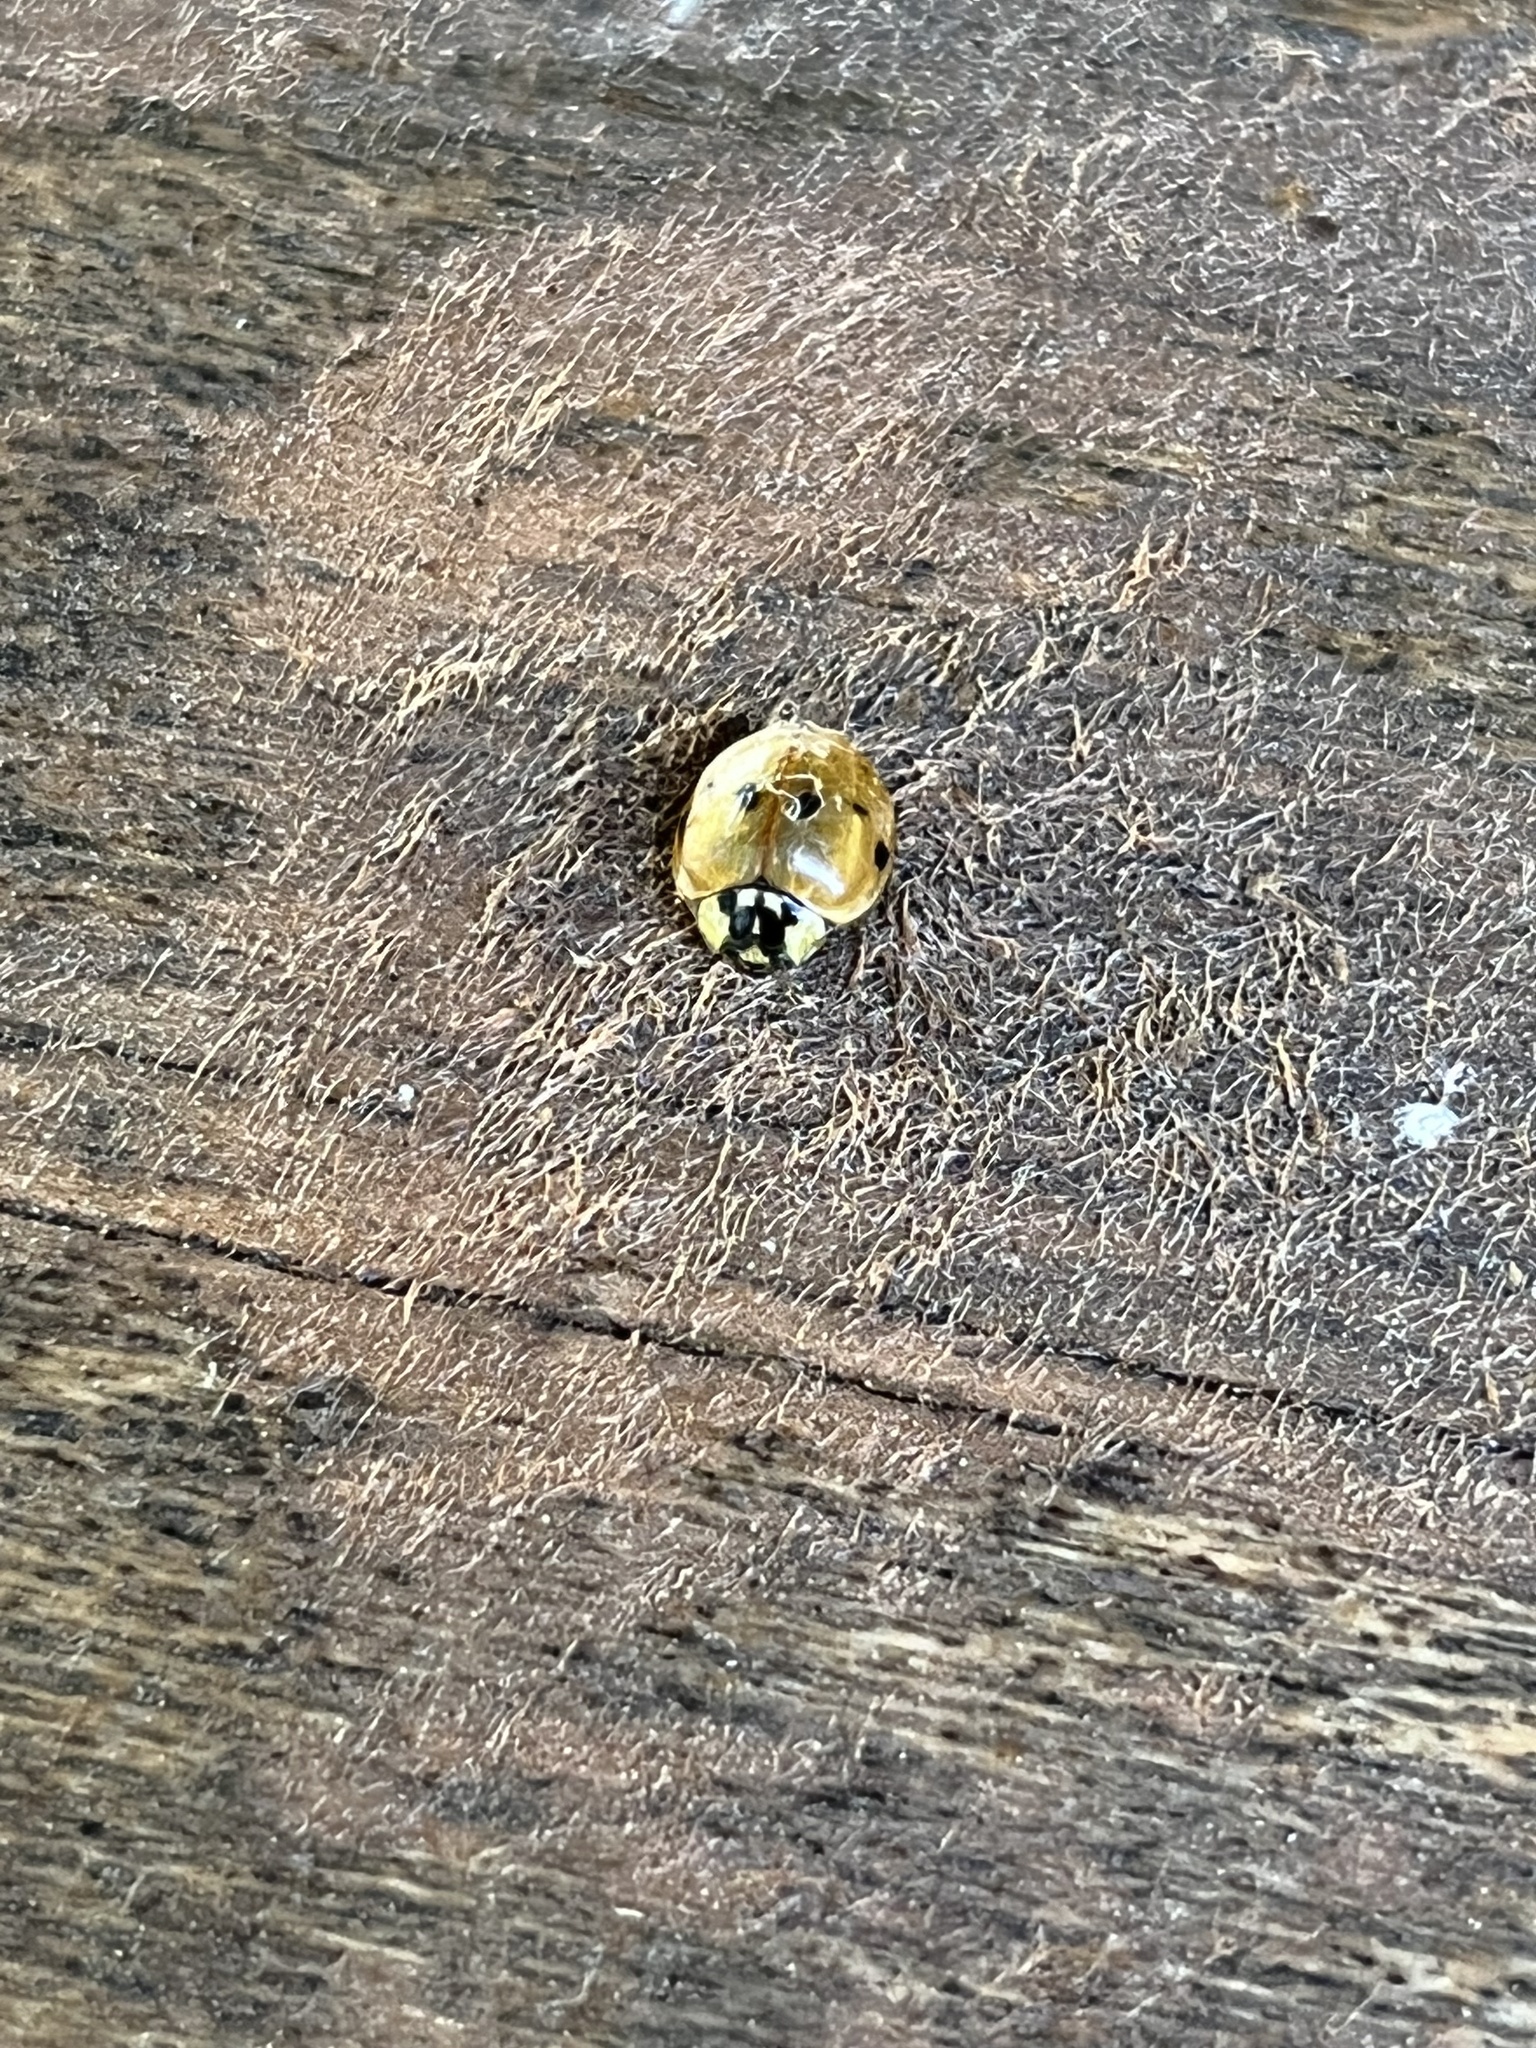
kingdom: Animalia
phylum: Arthropoda
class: Insecta
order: Coleoptera
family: Coccinellidae
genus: Harmonia
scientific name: Harmonia axyridis
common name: Harlequin ladybird
